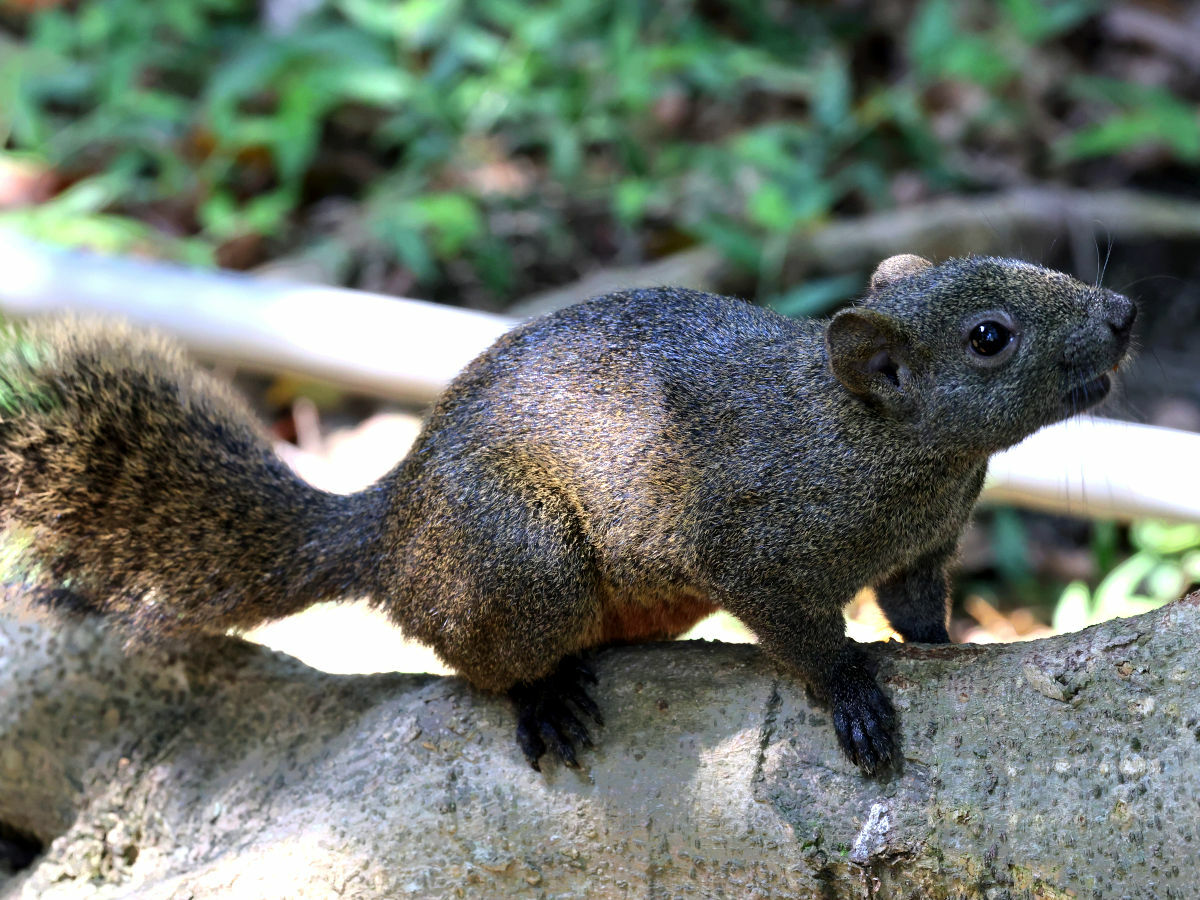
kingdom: Animalia
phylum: Chordata
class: Mammalia
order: Rodentia
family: Sciuridae
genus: Callosciurus
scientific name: Callosciurus erythraeus
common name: Pallas's squirrel
